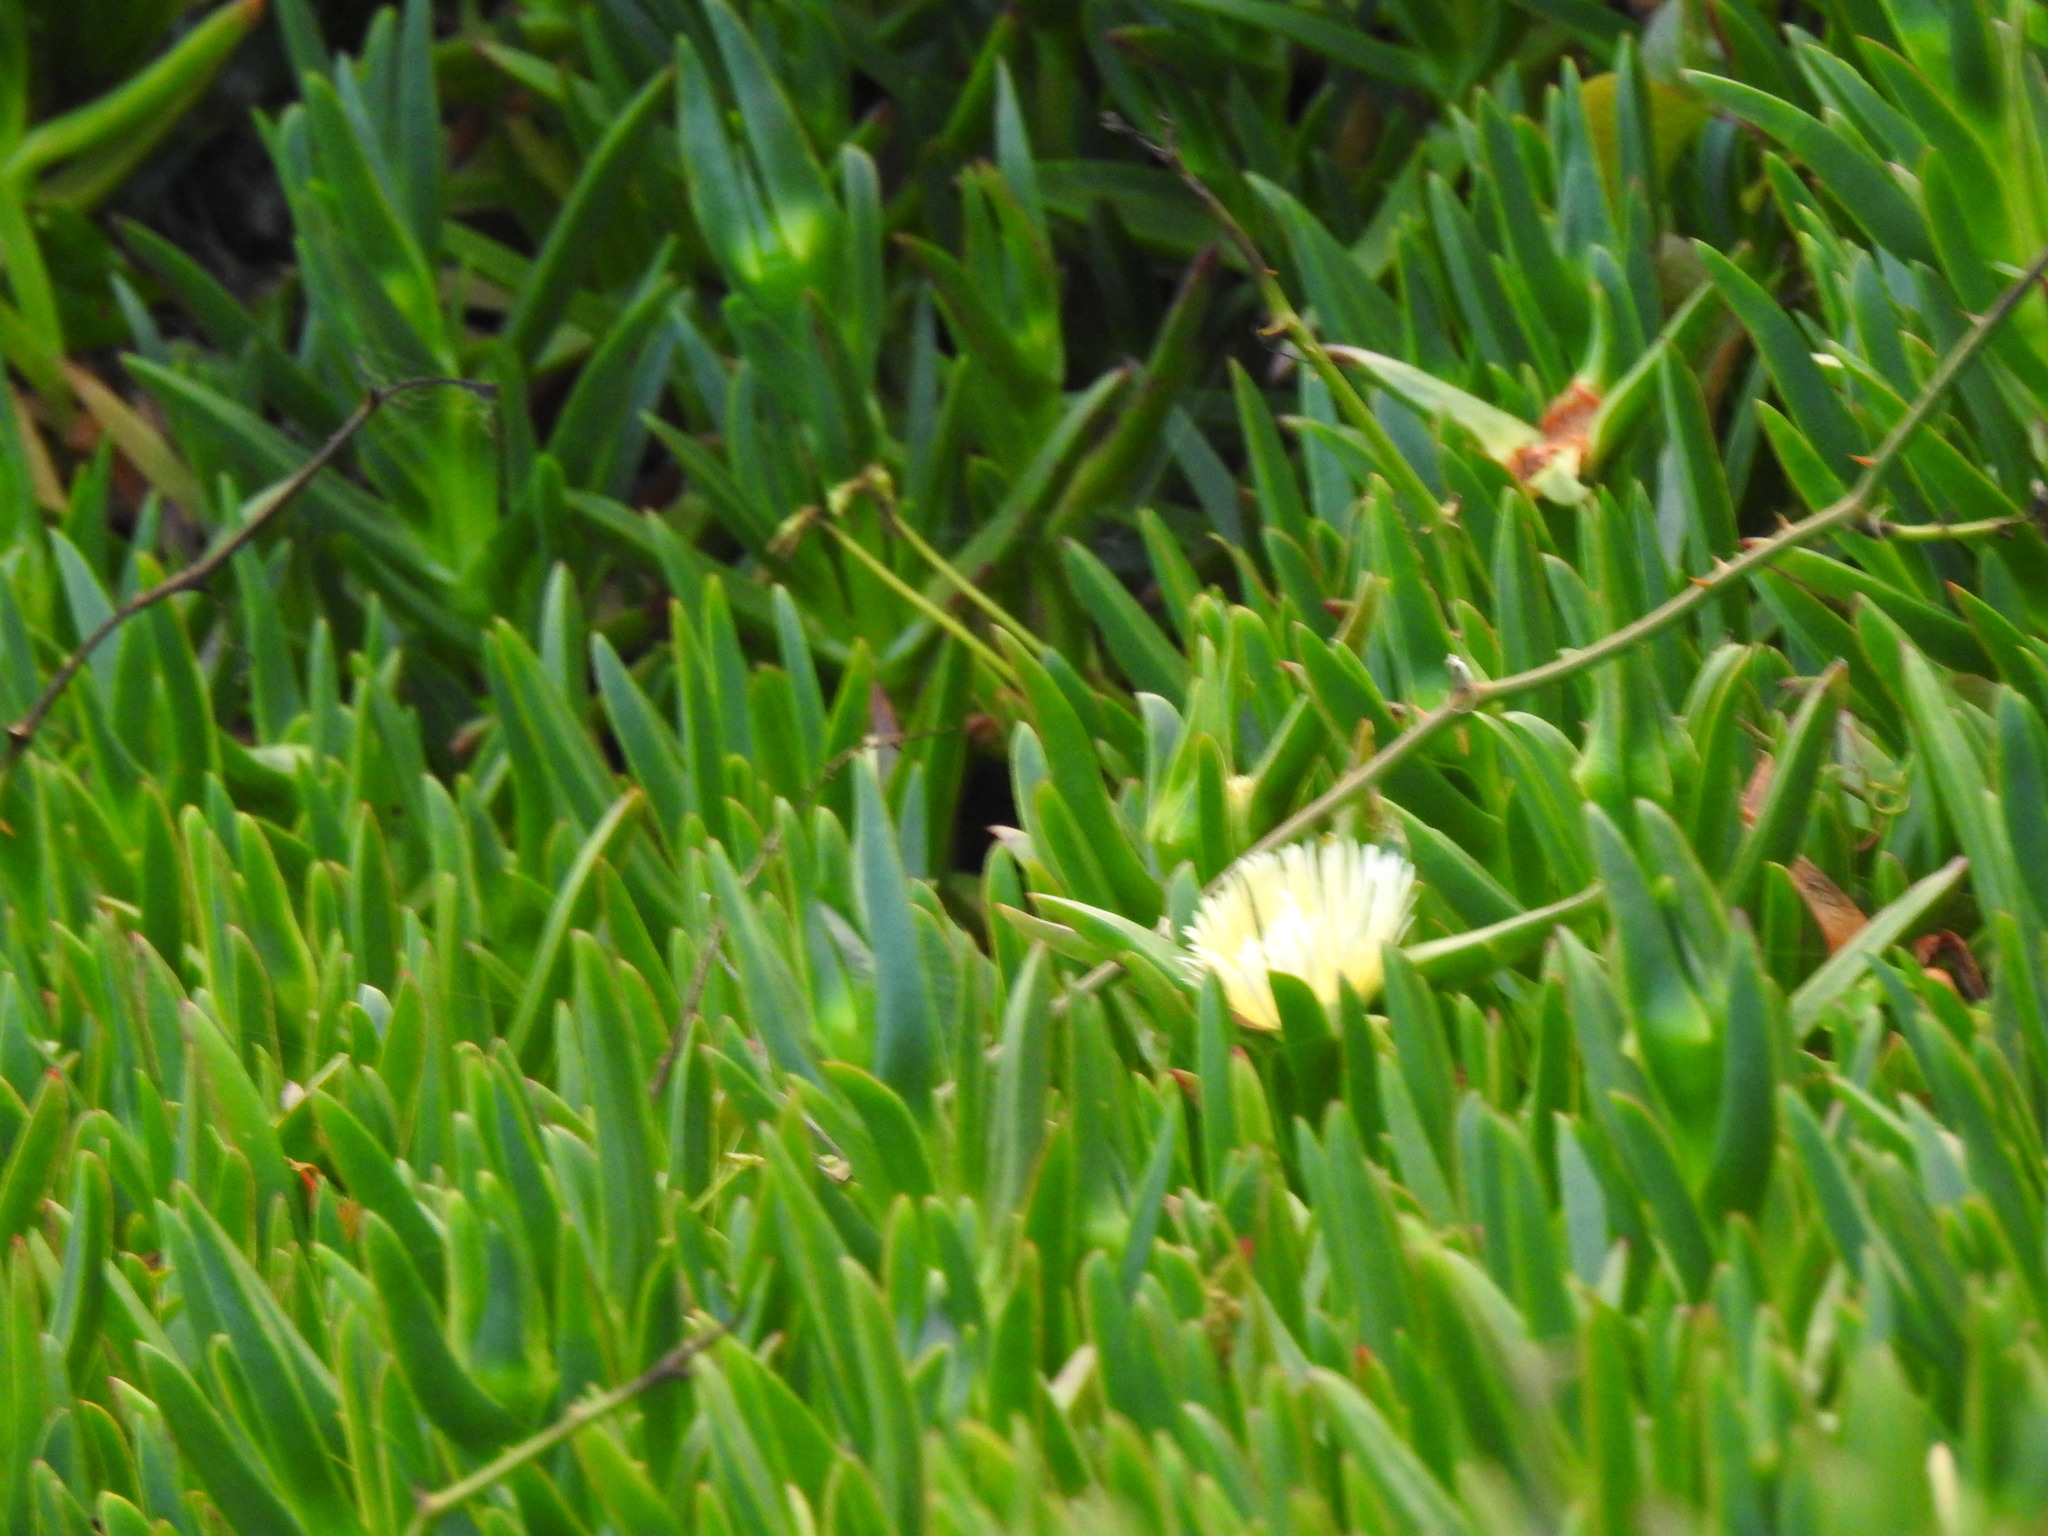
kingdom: Plantae
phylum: Tracheophyta
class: Magnoliopsida
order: Caryophyllales
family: Aizoaceae
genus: Carpobrotus
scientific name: Carpobrotus edulis
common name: Hottentot-fig
